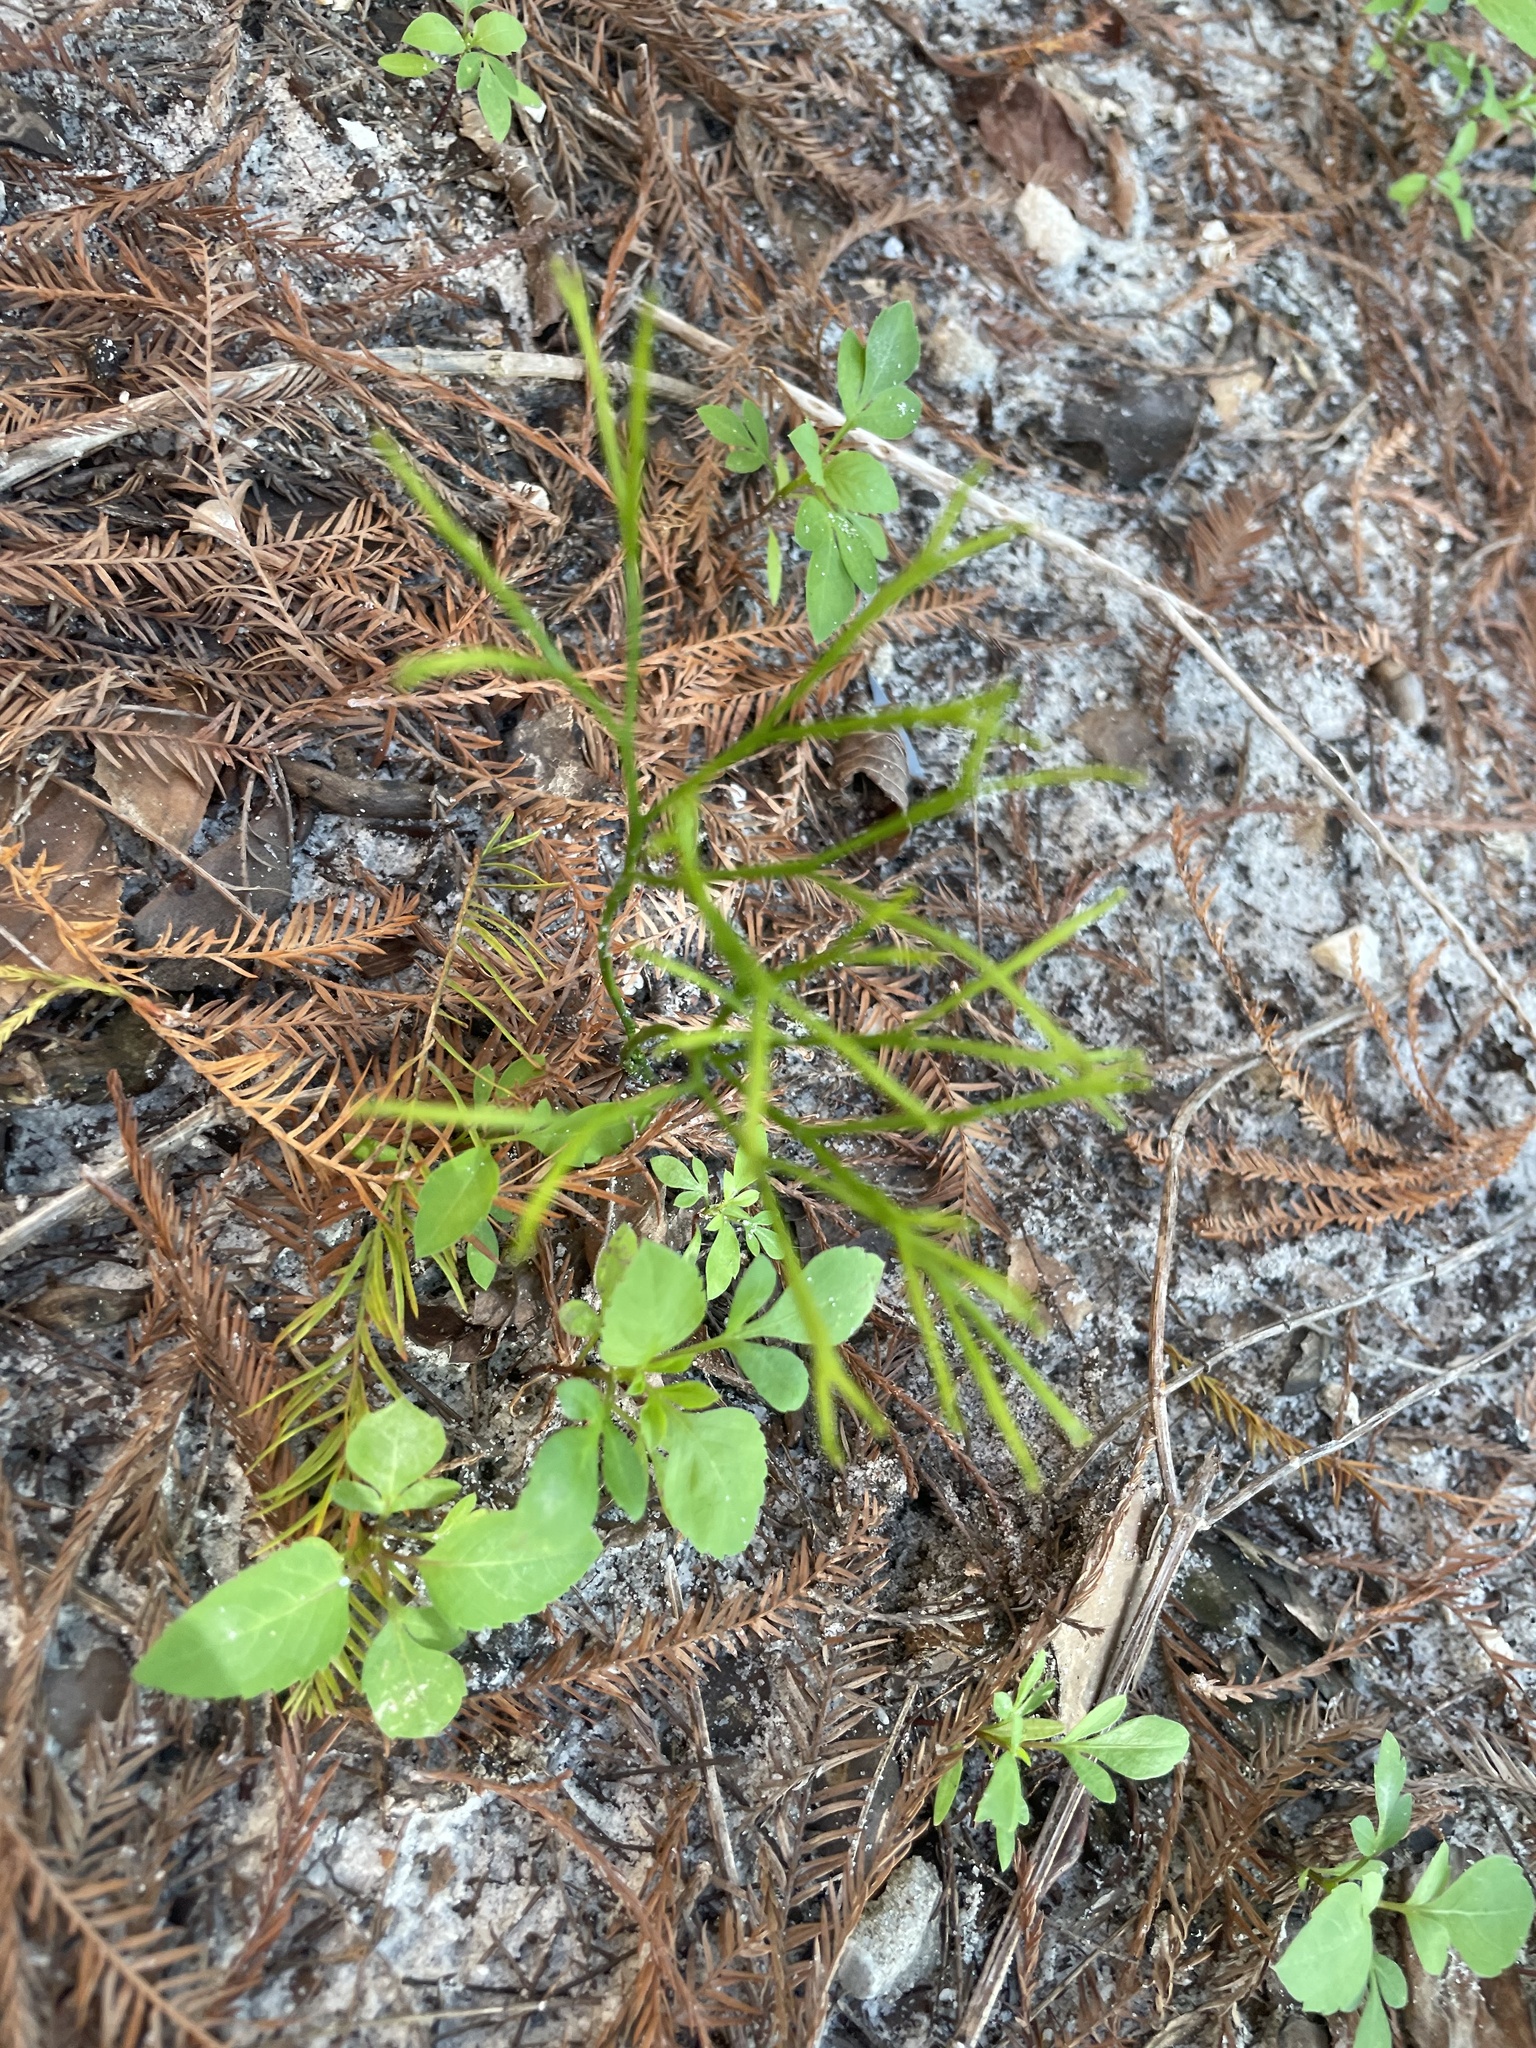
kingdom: Plantae
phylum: Tracheophyta
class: Polypodiopsida
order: Psilotales
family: Psilotaceae
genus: Psilotum
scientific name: Psilotum nudum
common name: Skeleton fork fern
